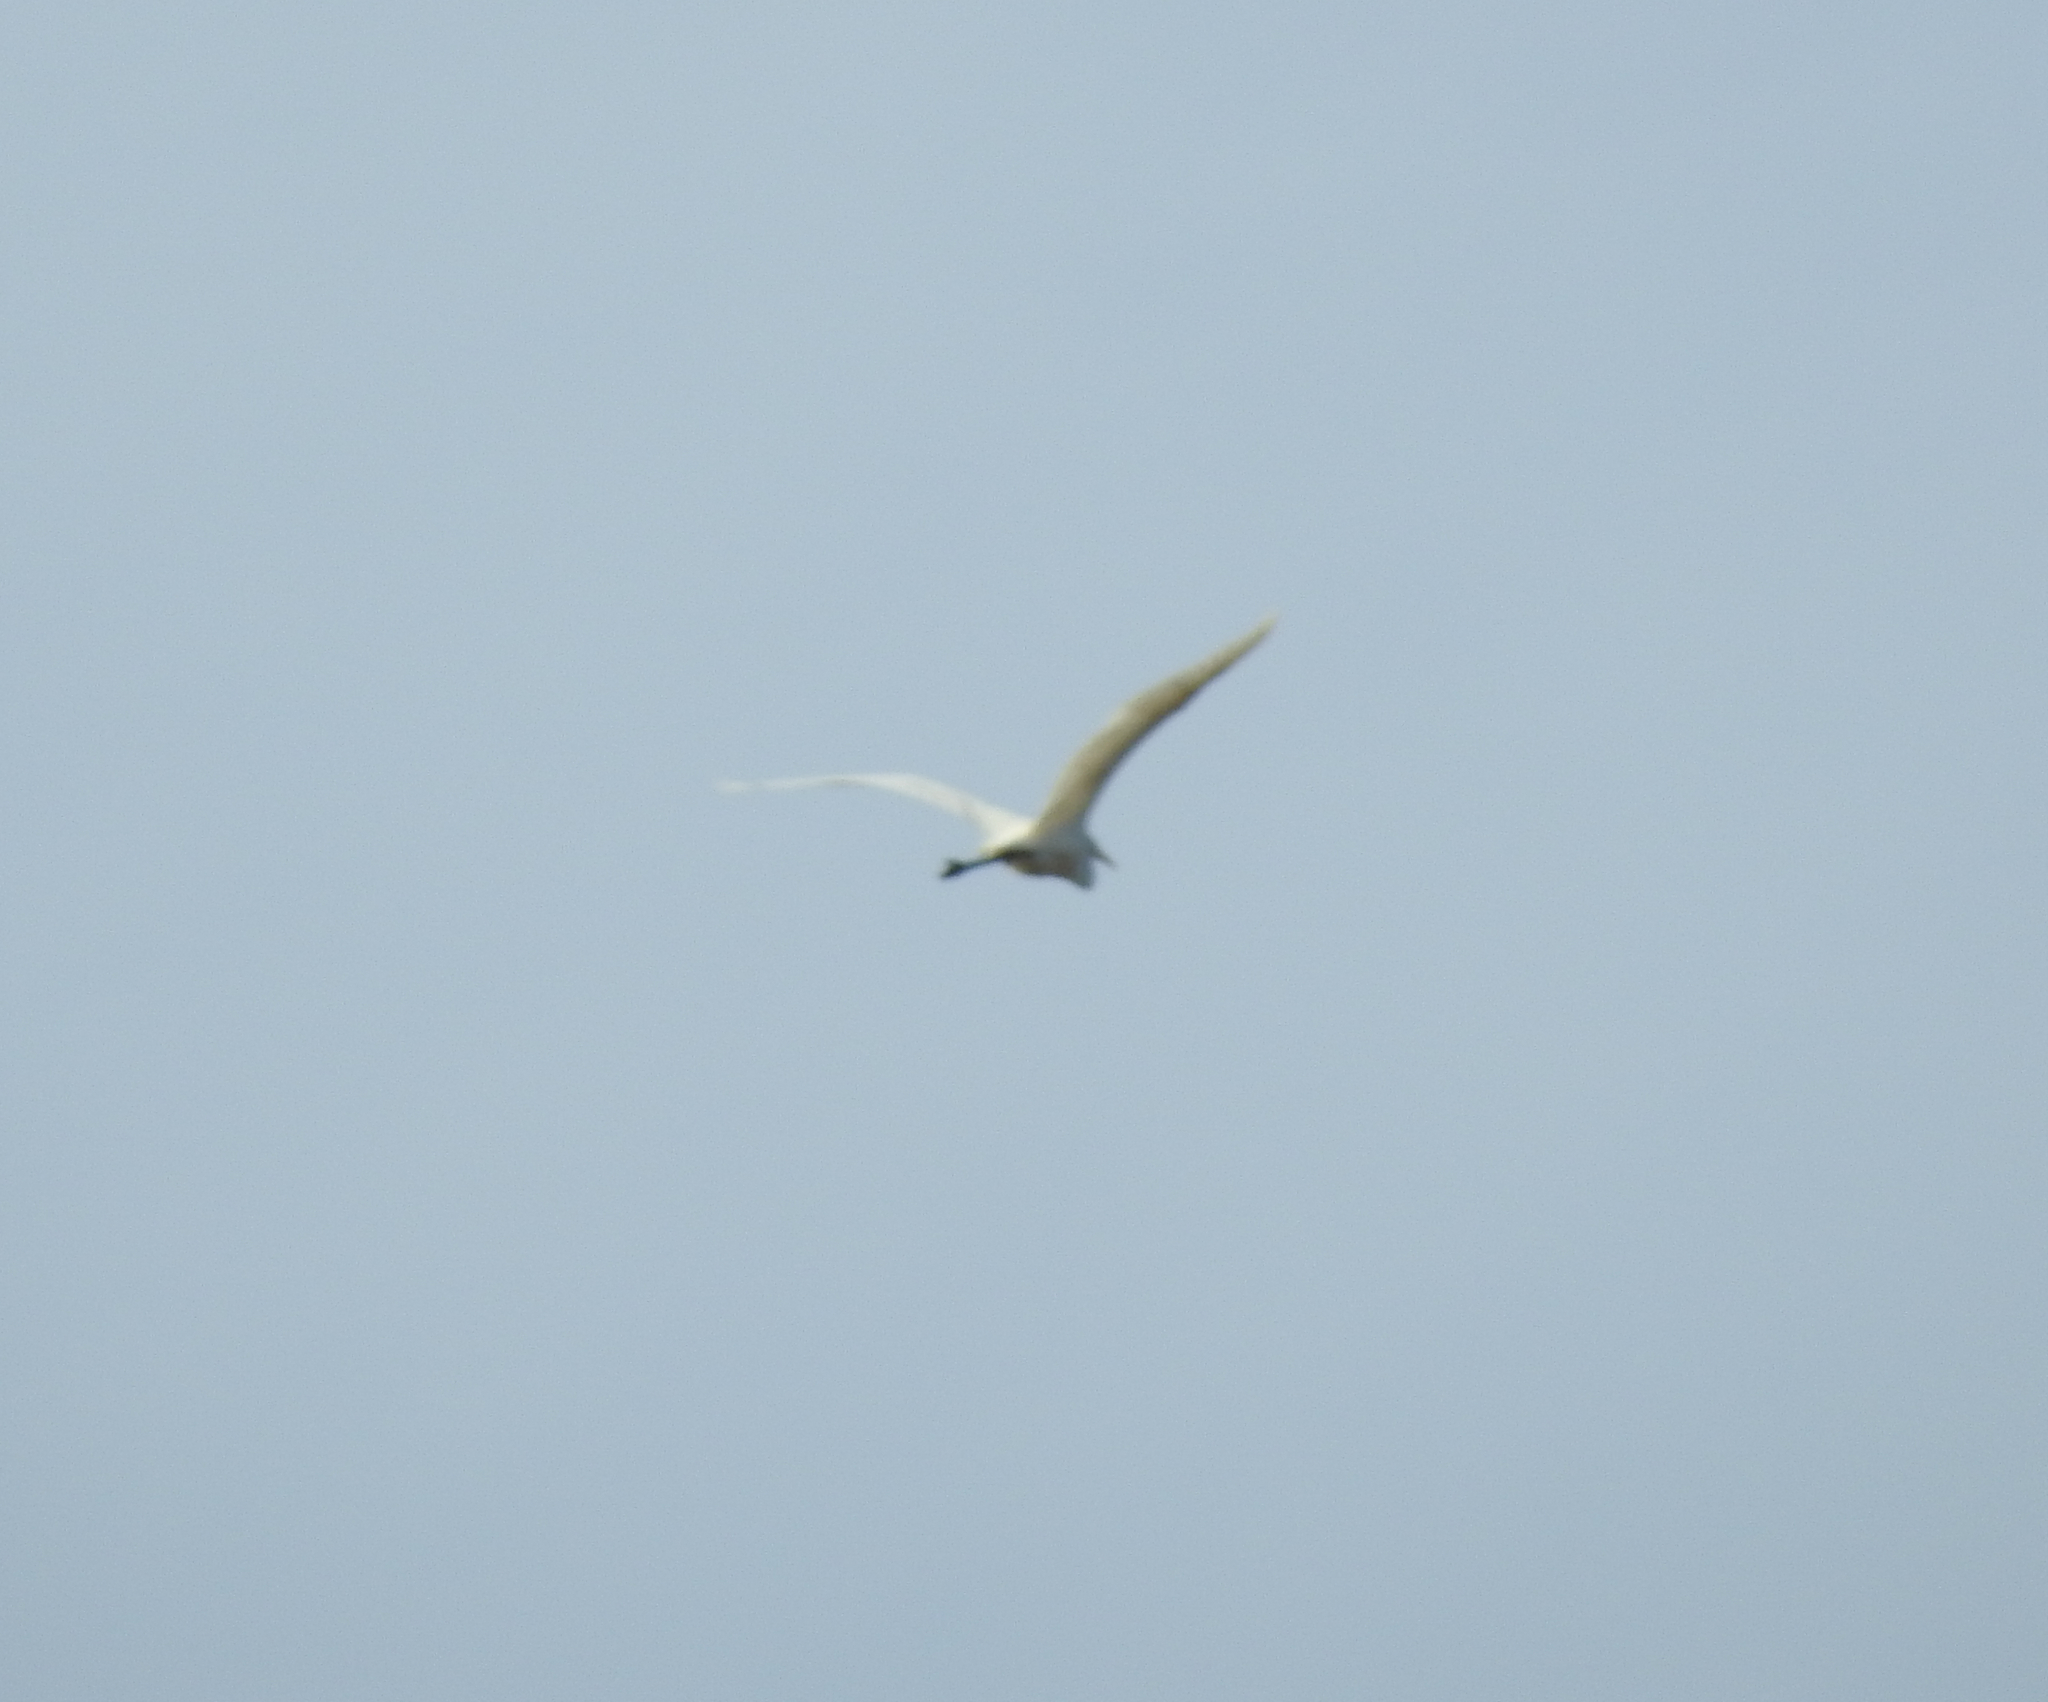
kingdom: Animalia
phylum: Chordata
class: Aves
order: Pelecaniformes
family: Ardeidae
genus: Ardea
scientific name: Ardea alba
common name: Great egret
